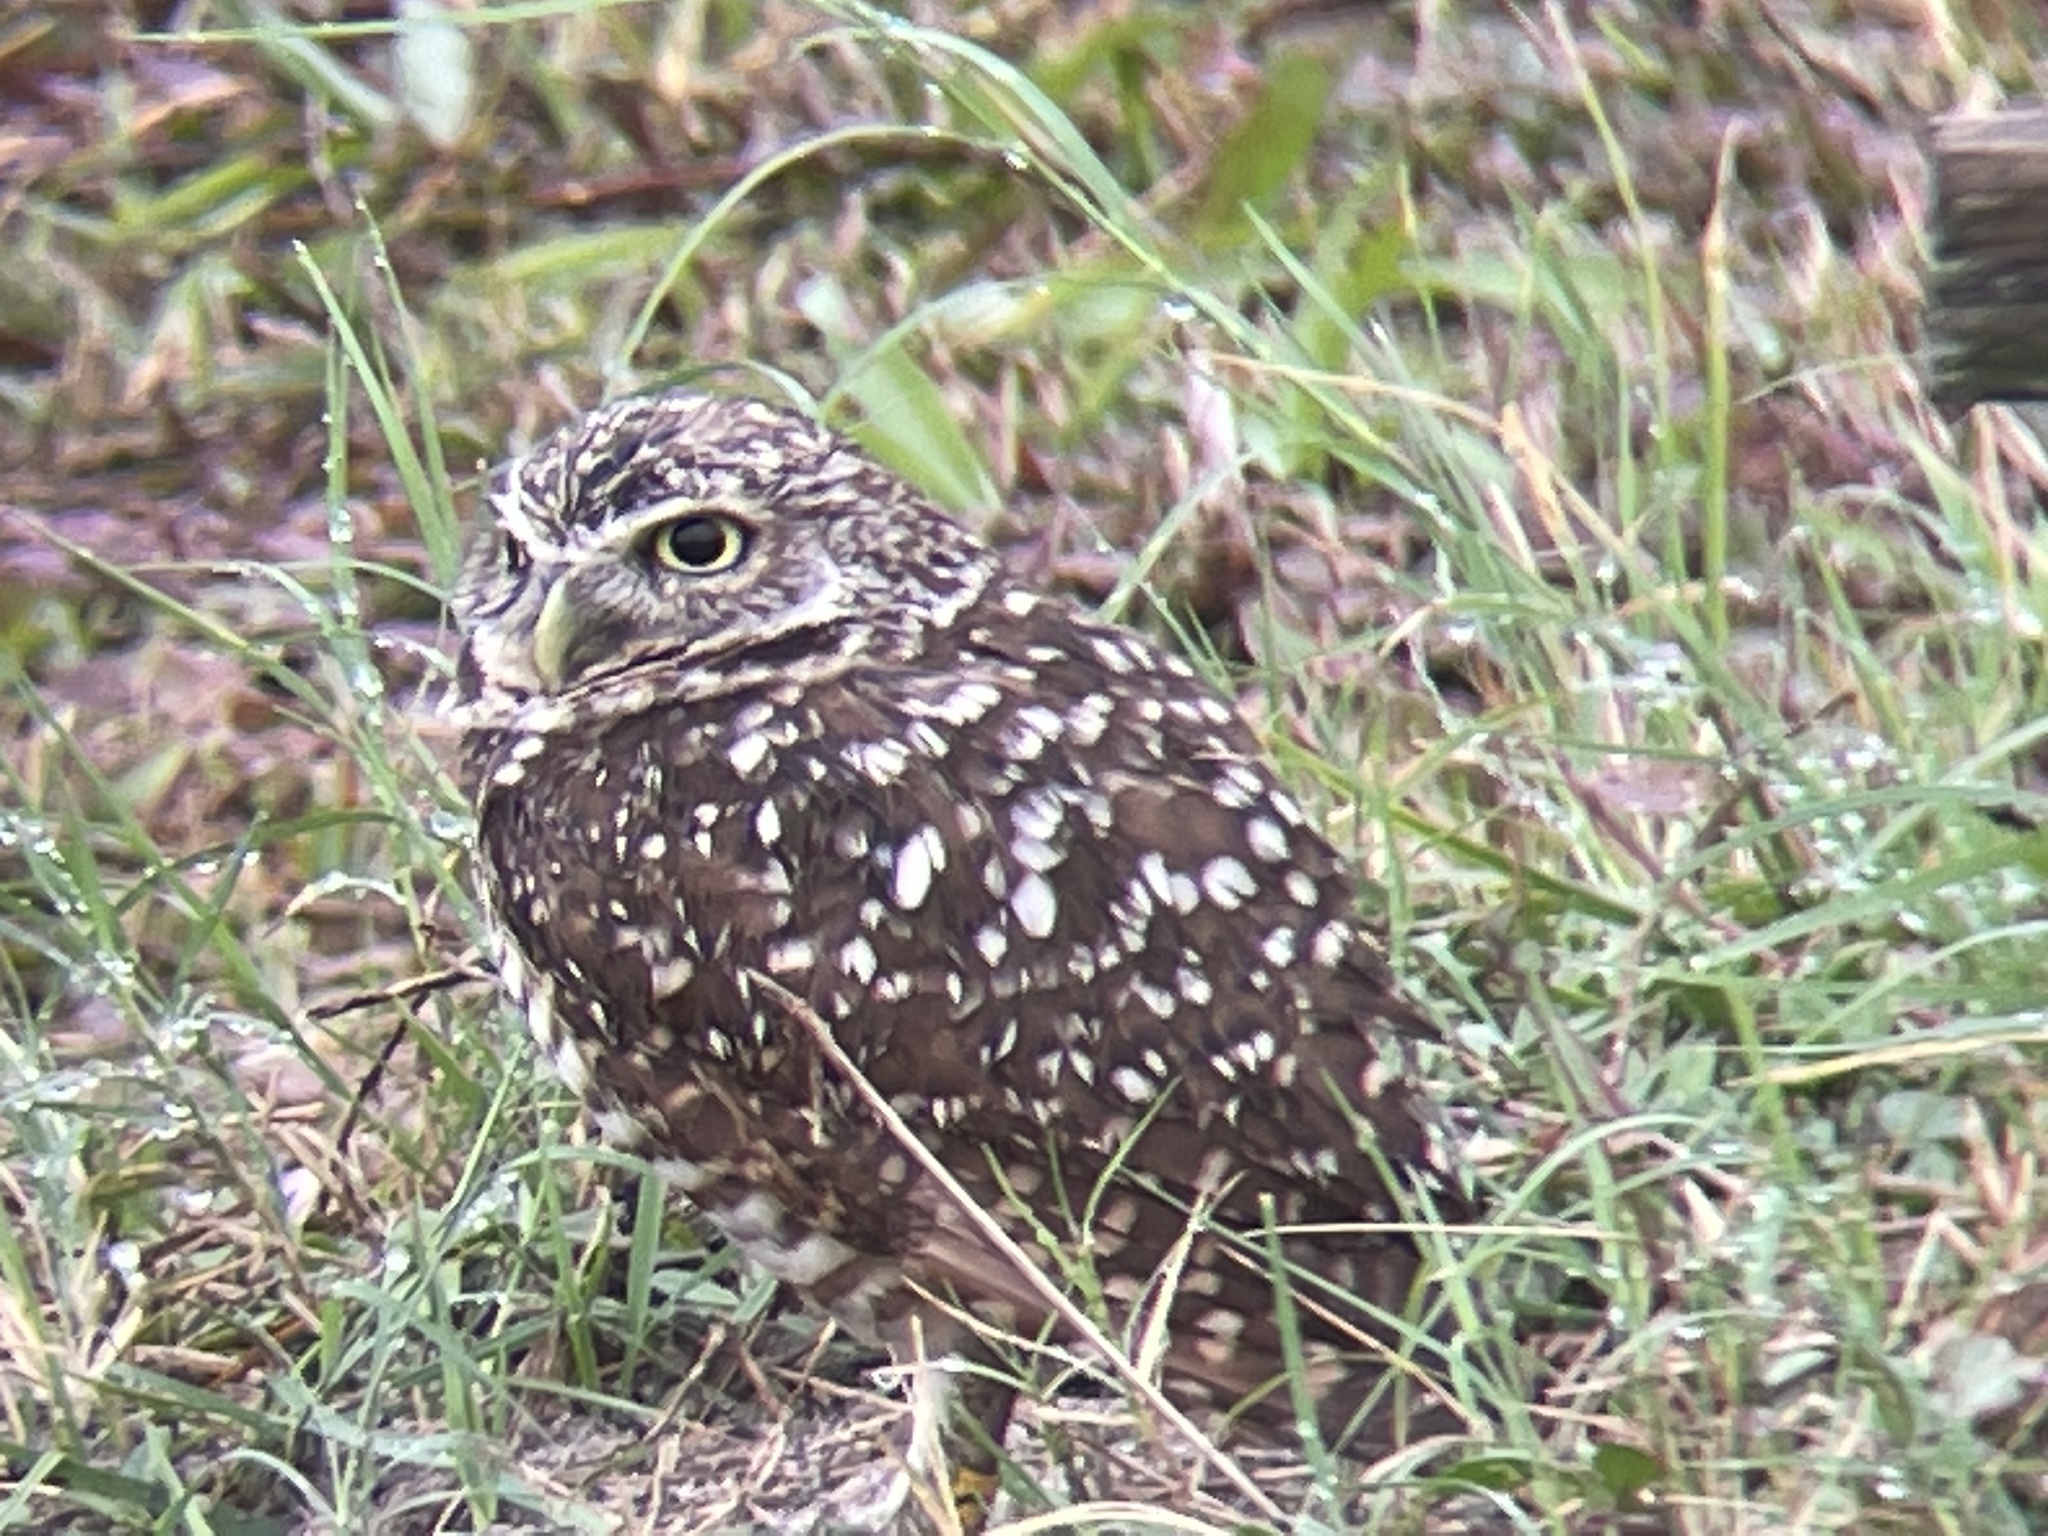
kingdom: Animalia
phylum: Chordata
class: Aves
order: Strigiformes
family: Strigidae
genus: Athene
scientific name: Athene cunicularia
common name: Burrowing owl
